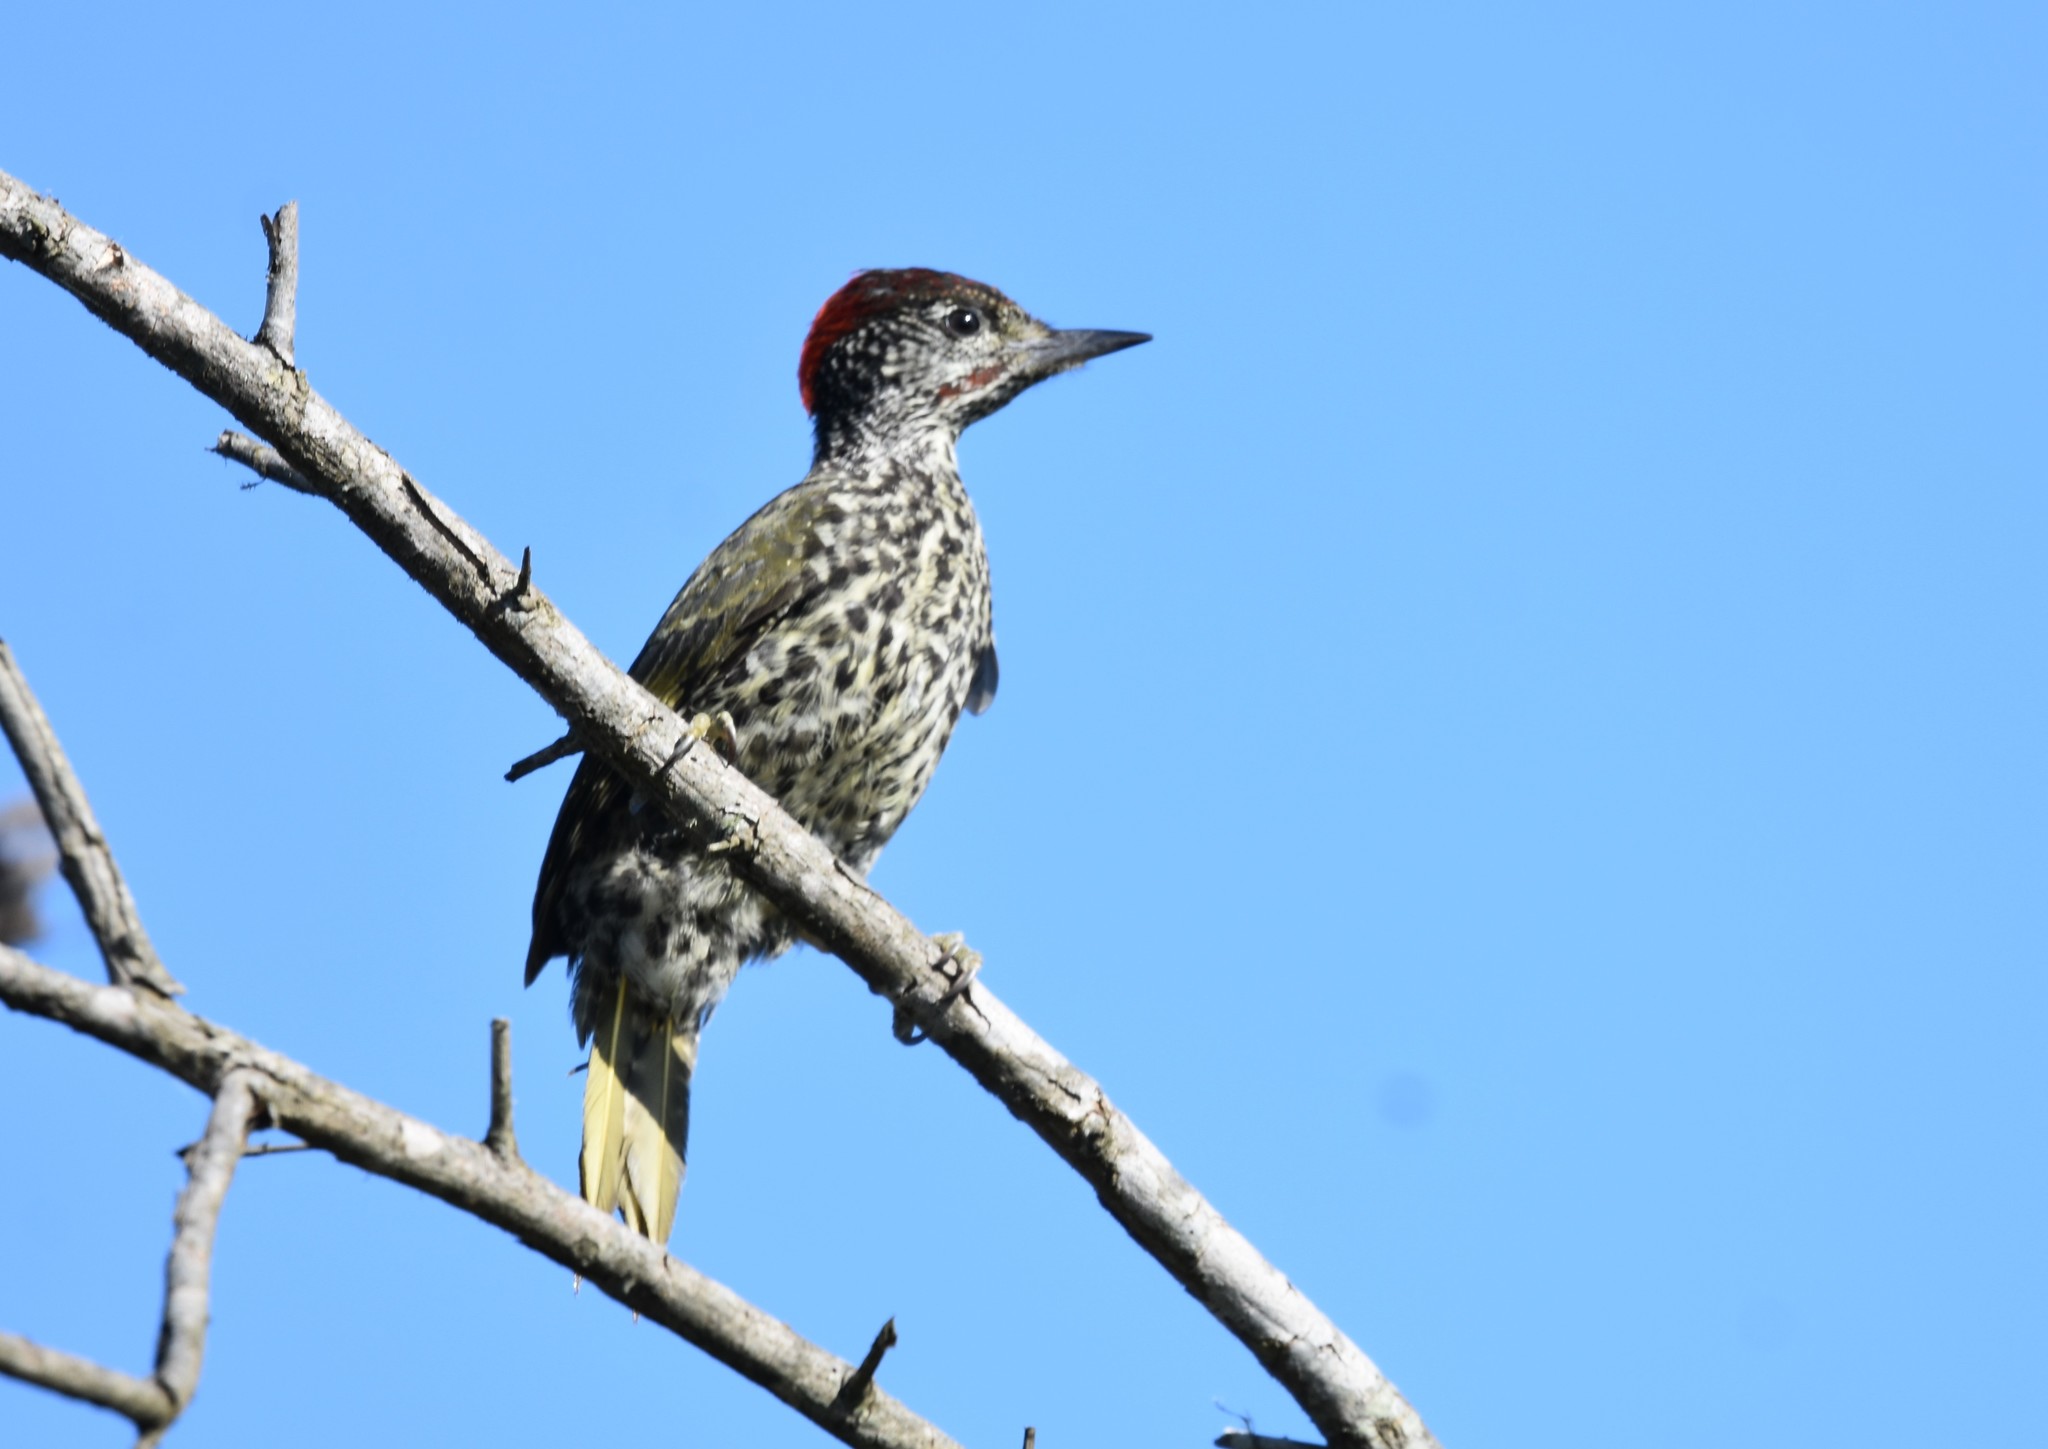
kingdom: Animalia
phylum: Chordata
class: Aves
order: Piciformes
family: Picidae
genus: Campethera
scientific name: Campethera notata
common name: Knysna woodpecker
